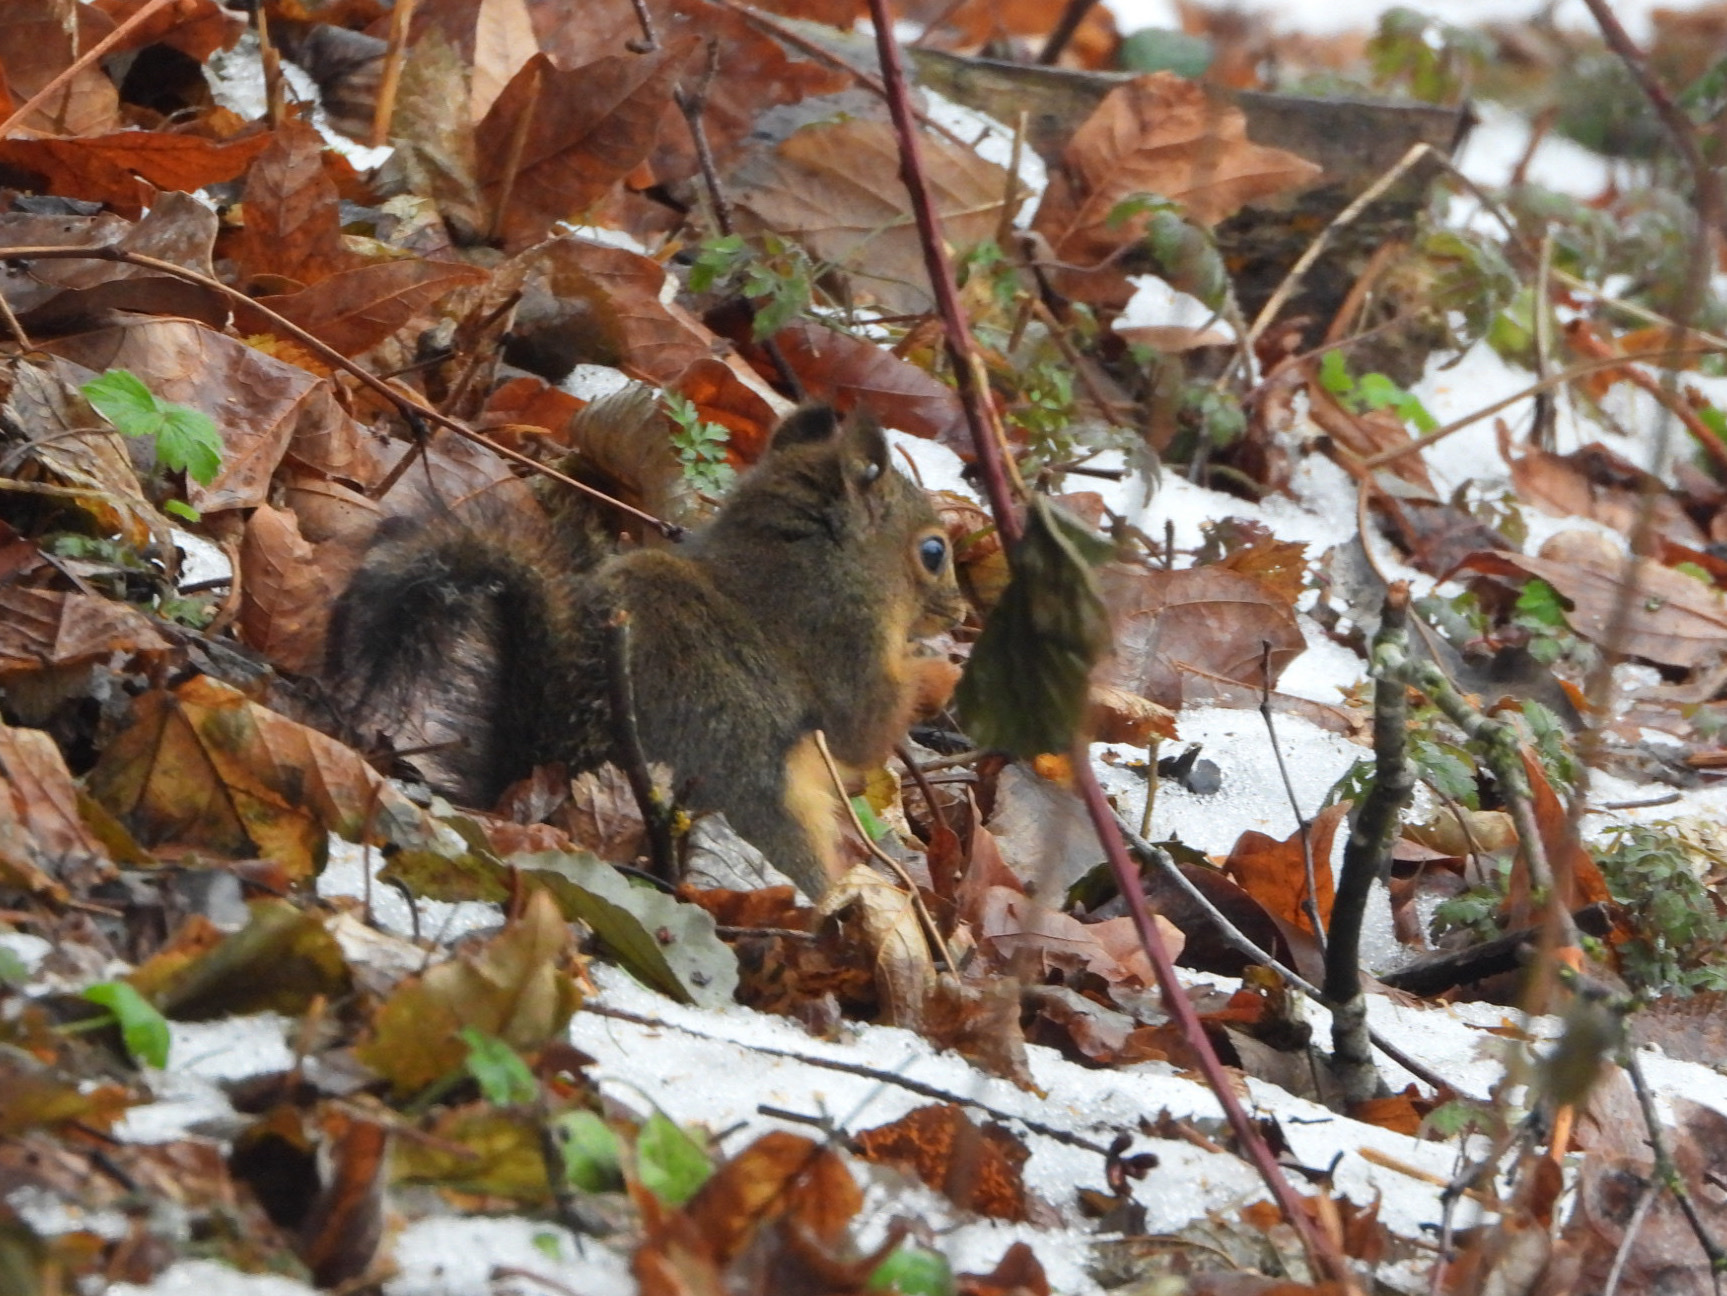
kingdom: Animalia
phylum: Chordata
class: Mammalia
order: Rodentia
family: Sciuridae
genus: Tamiasciurus
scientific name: Tamiasciurus douglasii
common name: Douglas's squirrel
